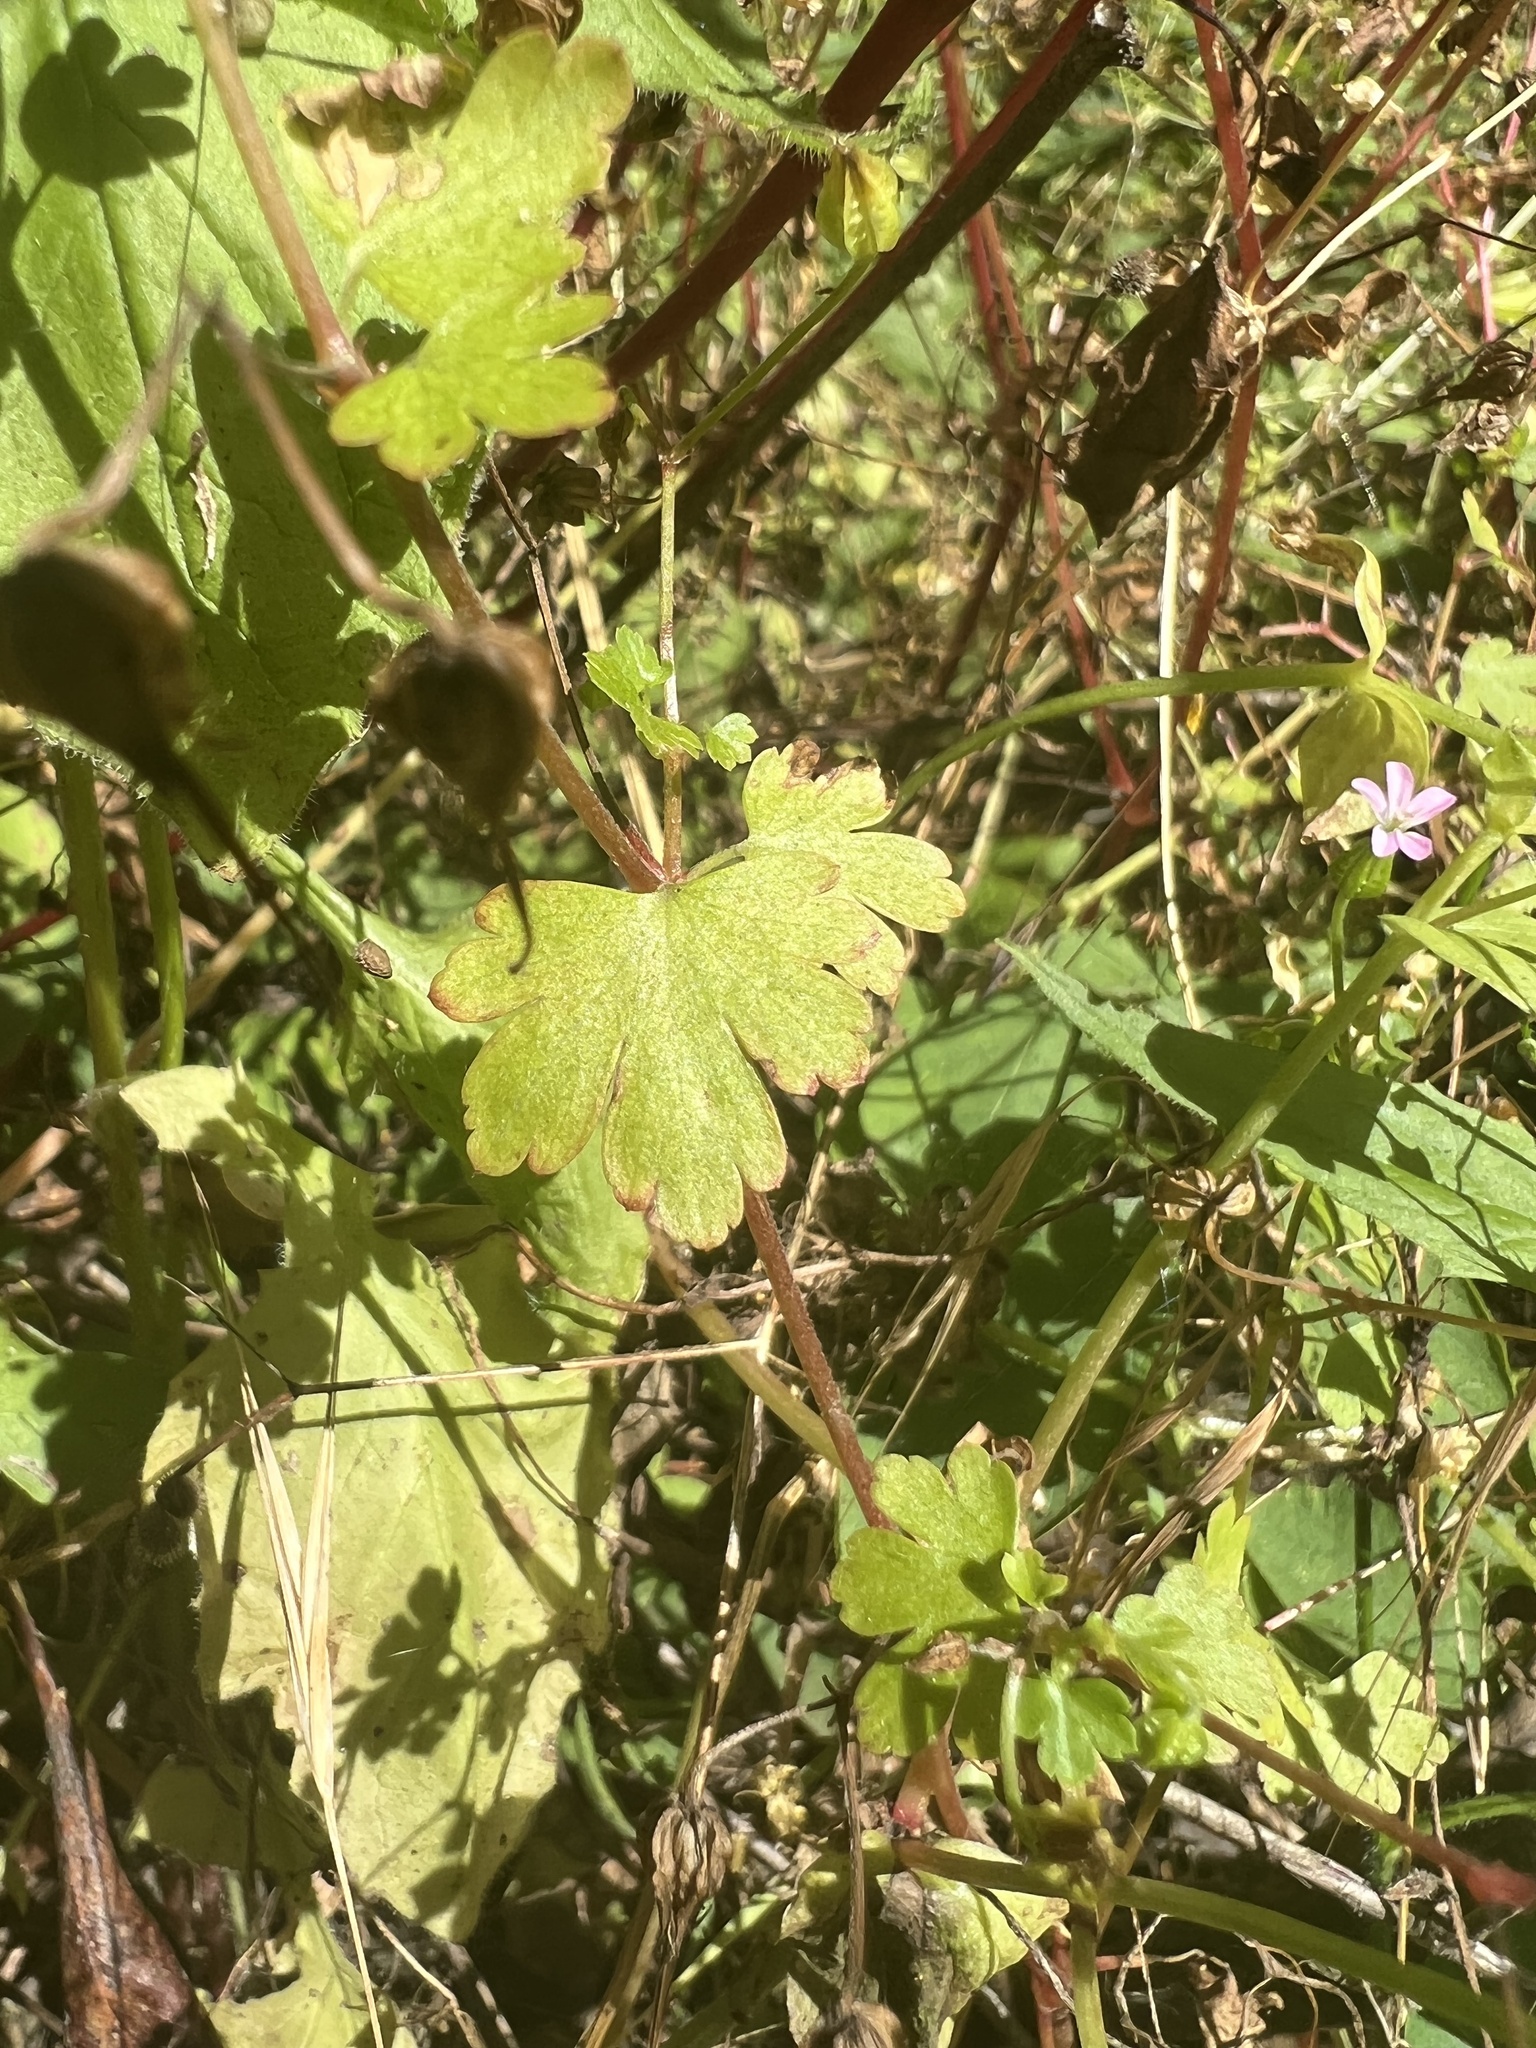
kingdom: Plantae
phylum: Tracheophyta
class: Magnoliopsida
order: Geraniales
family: Geraniaceae
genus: Geranium
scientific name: Geranium lucidum
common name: Shining crane's-bill
